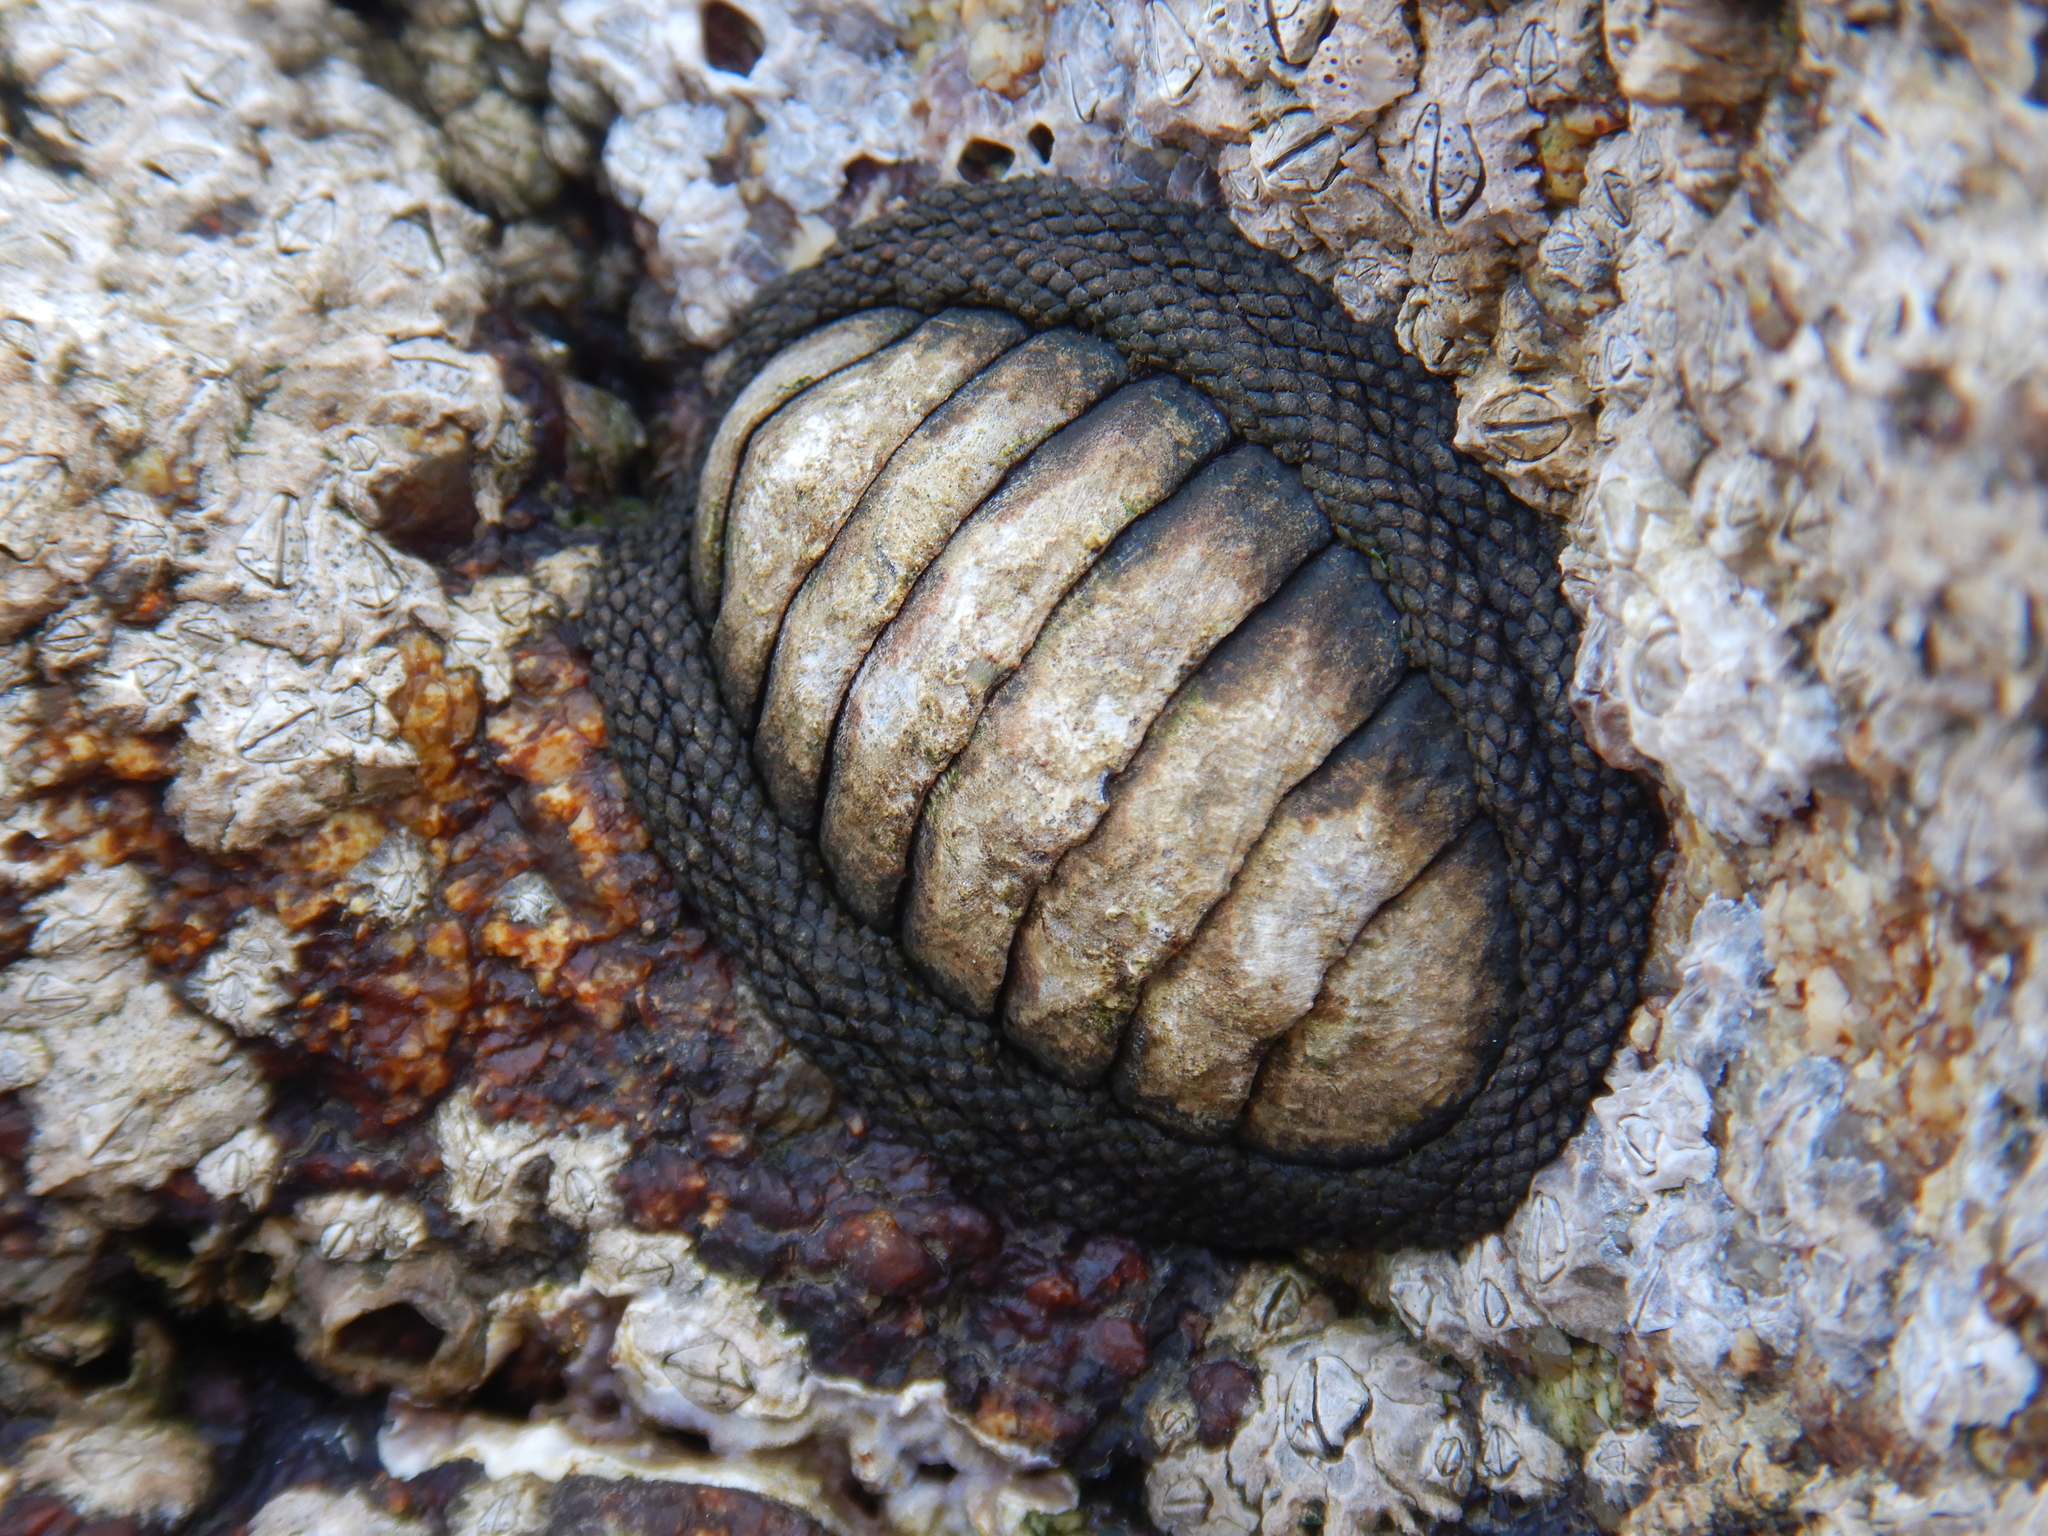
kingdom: Animalia
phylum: Mollusca
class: Polyplacophora
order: Chitonida
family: Chitonidae
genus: Chiton
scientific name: Chiton granosus
